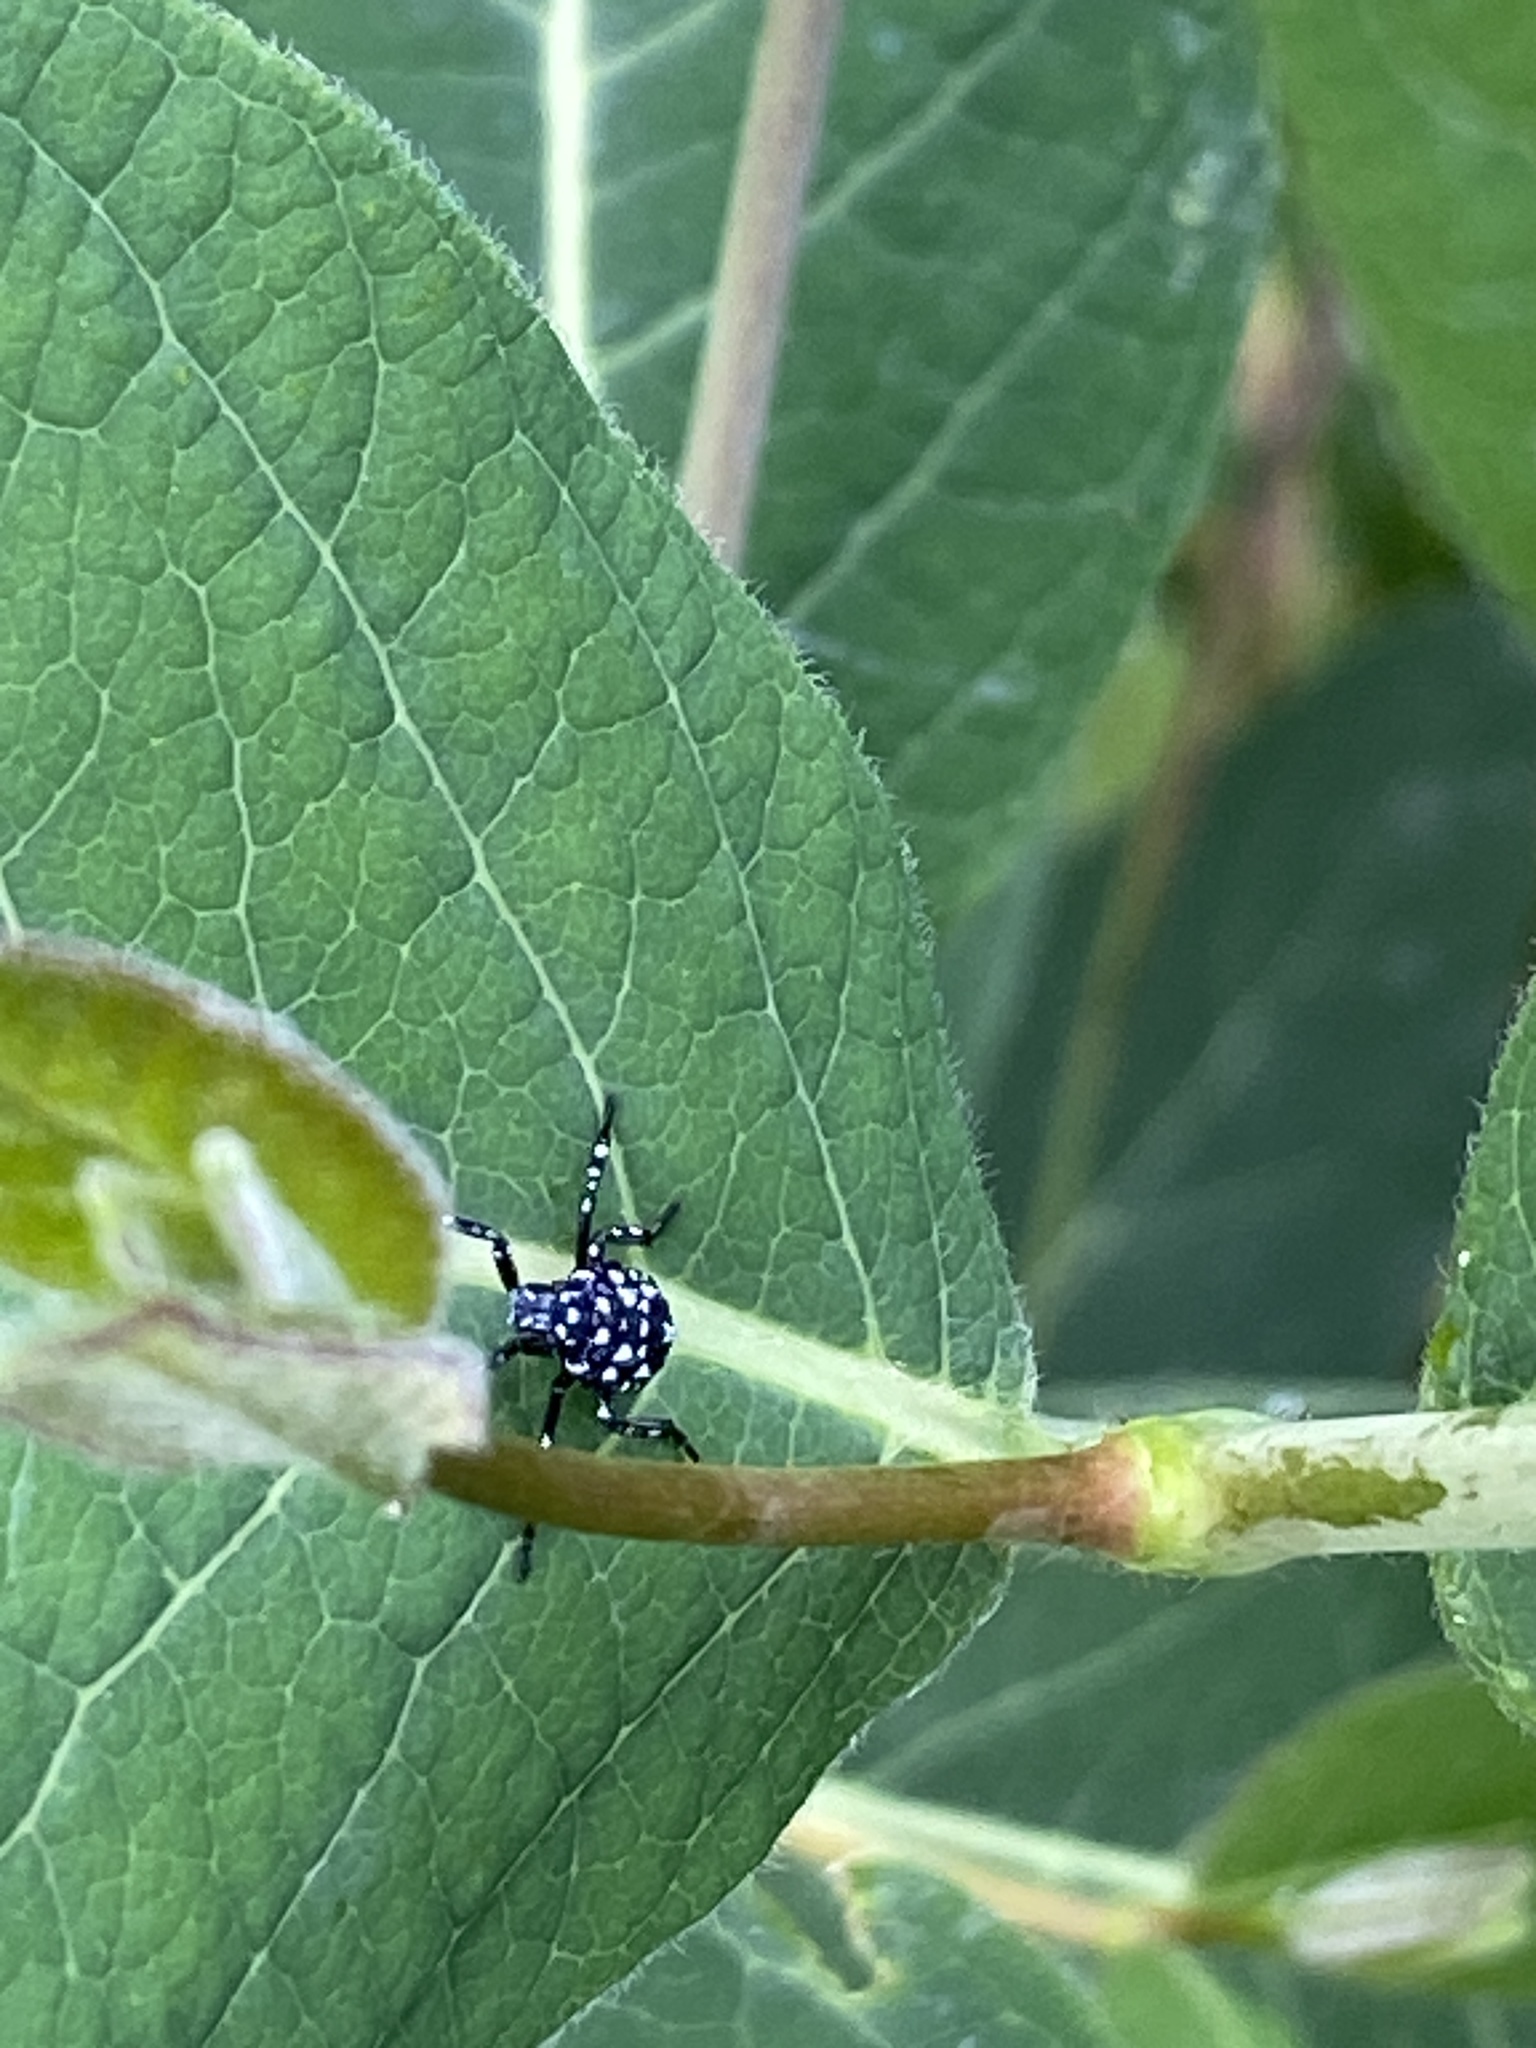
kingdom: Animalia
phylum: Arthropoda
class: Insecta
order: Hemiptera
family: Fulgoridae
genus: Lycorma
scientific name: Lycorma delicatula
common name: Spotted lanternfly
